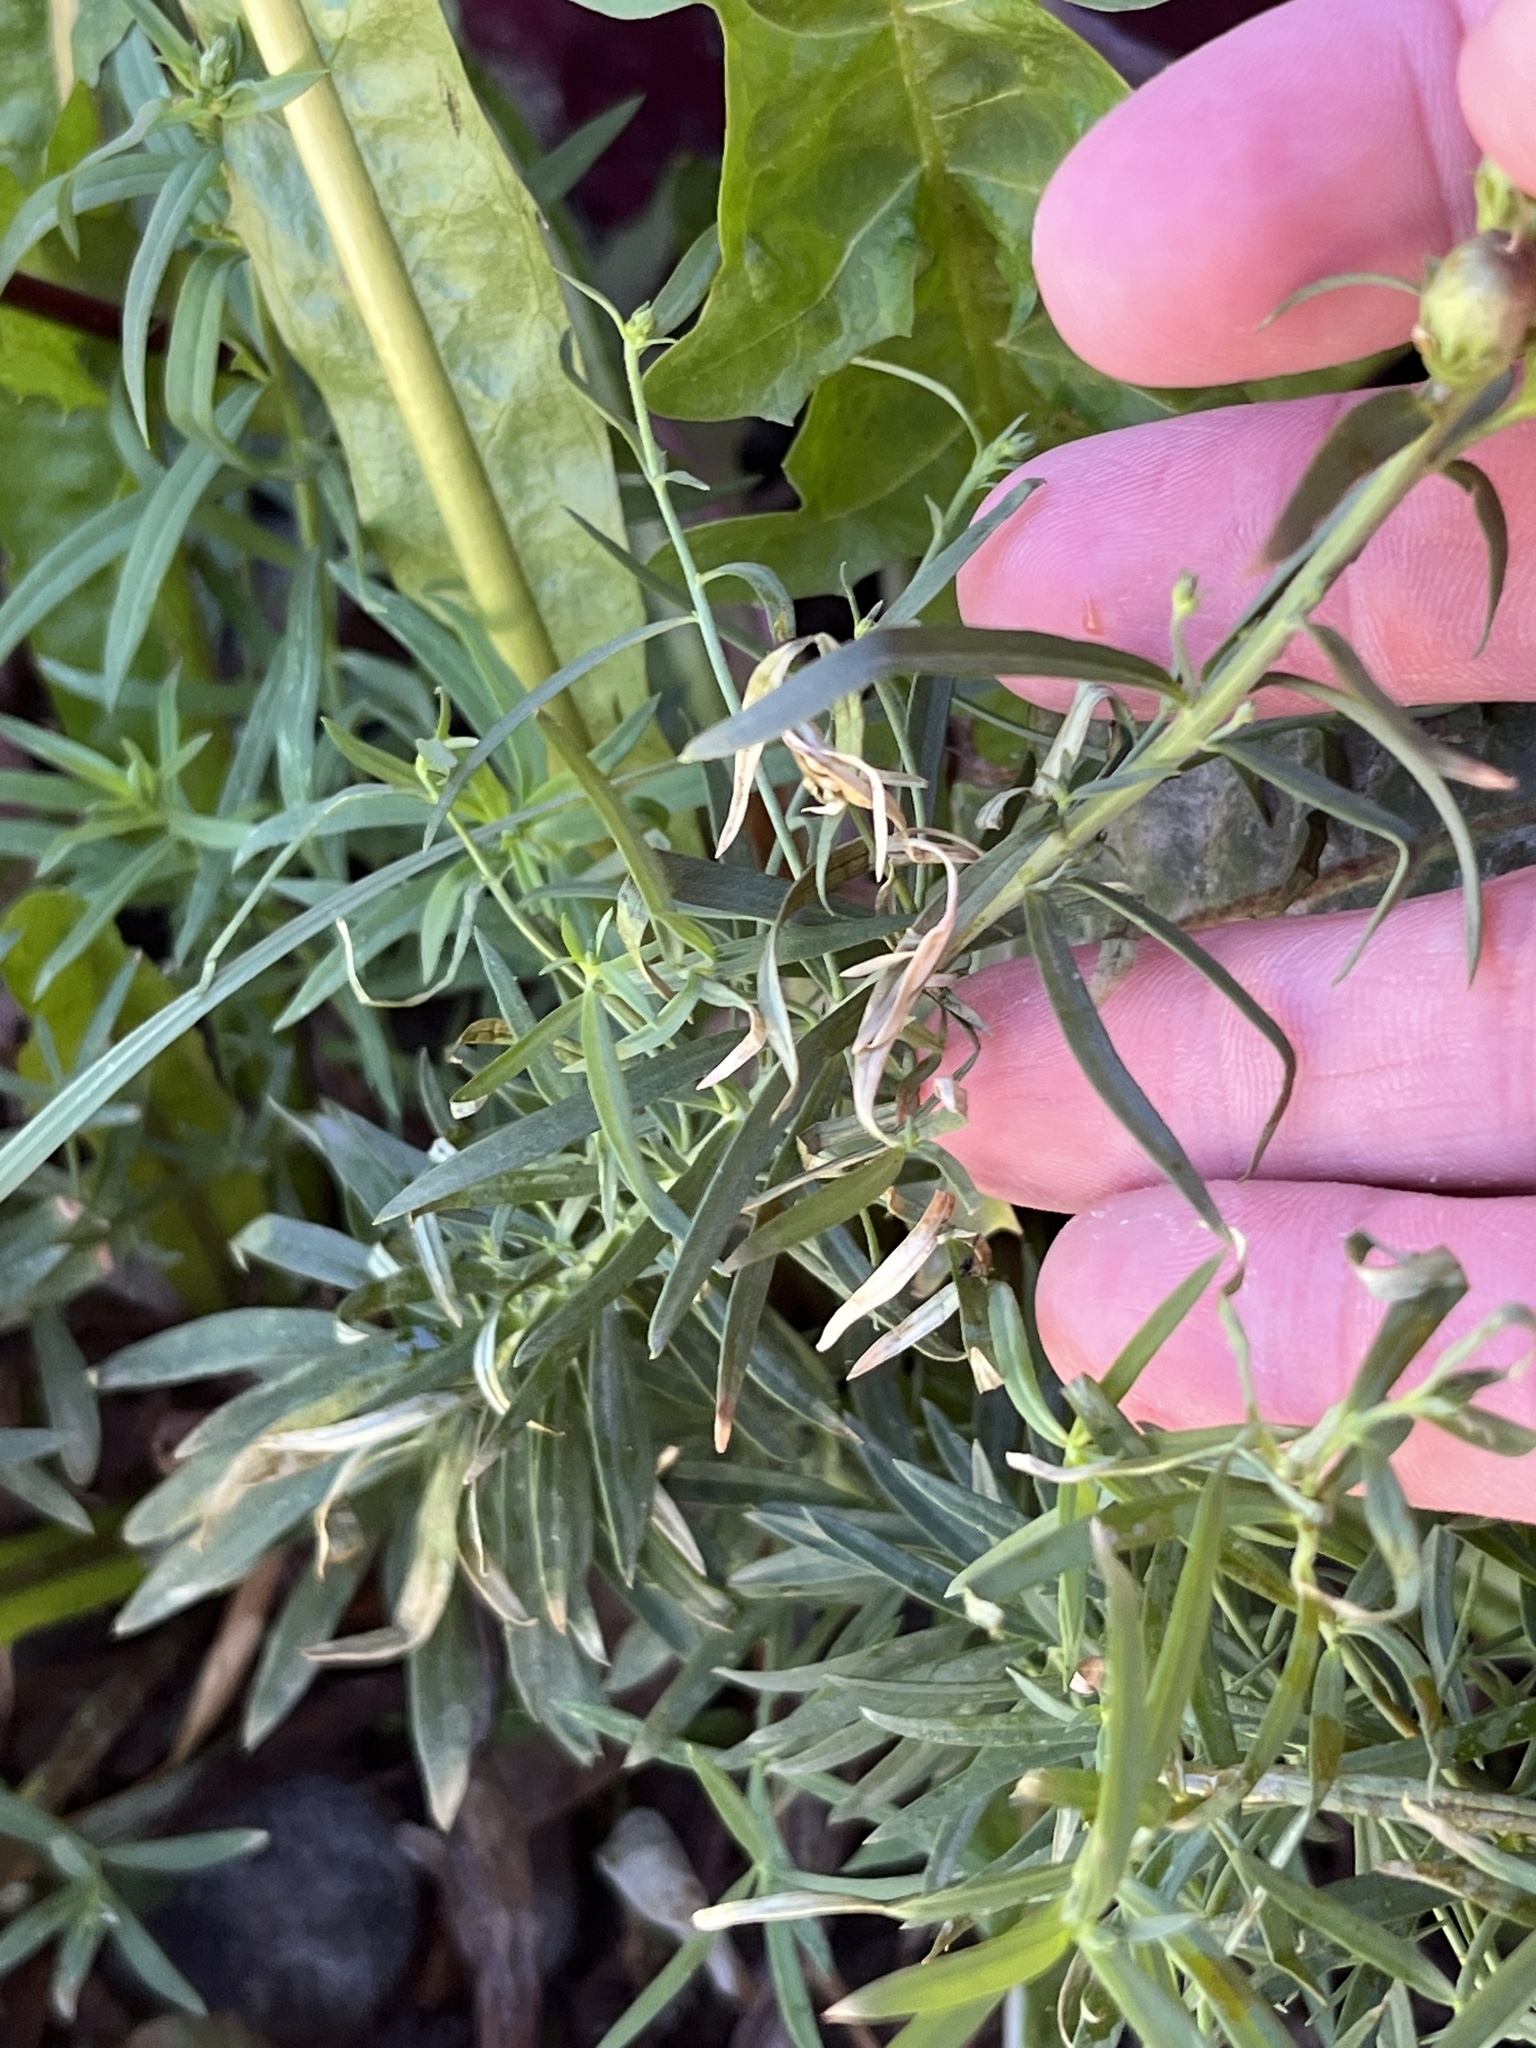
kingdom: Plantae
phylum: Tracheophyta
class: Magnoliopsida
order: Lamiales
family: Plantaginaceae
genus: Linaria
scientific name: Linaria vulgaris
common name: Butter and eggs
